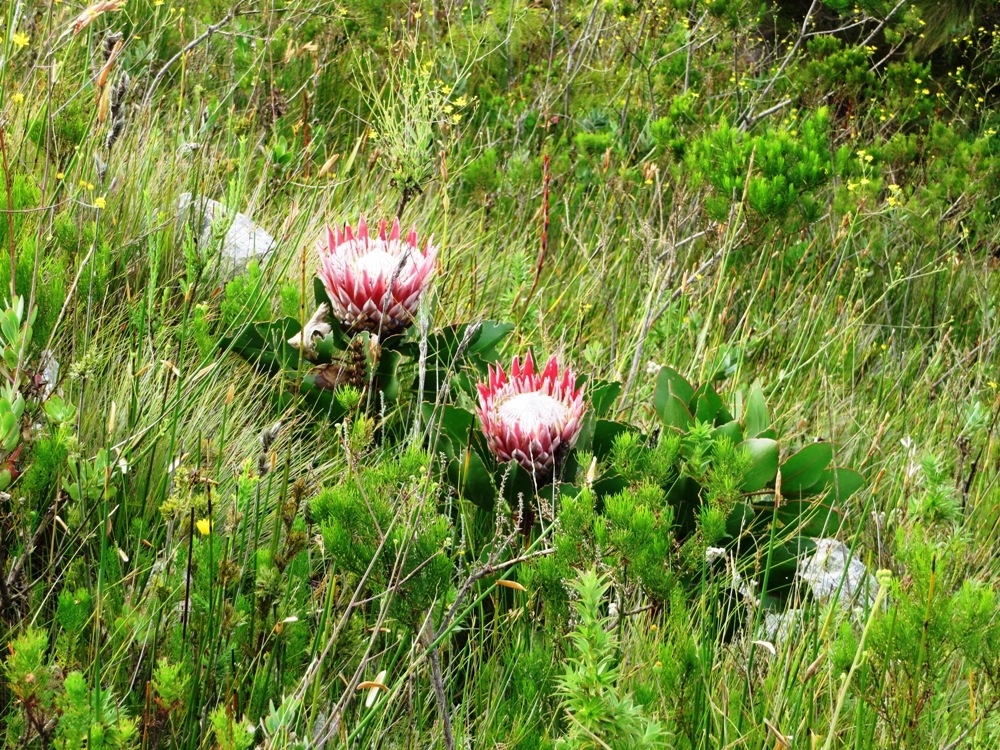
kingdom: Plantae
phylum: Tracheophyta
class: Magnoliopsida
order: Proteales
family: Proteaceae
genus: Protea
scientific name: Protea cynaroides
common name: King protea
